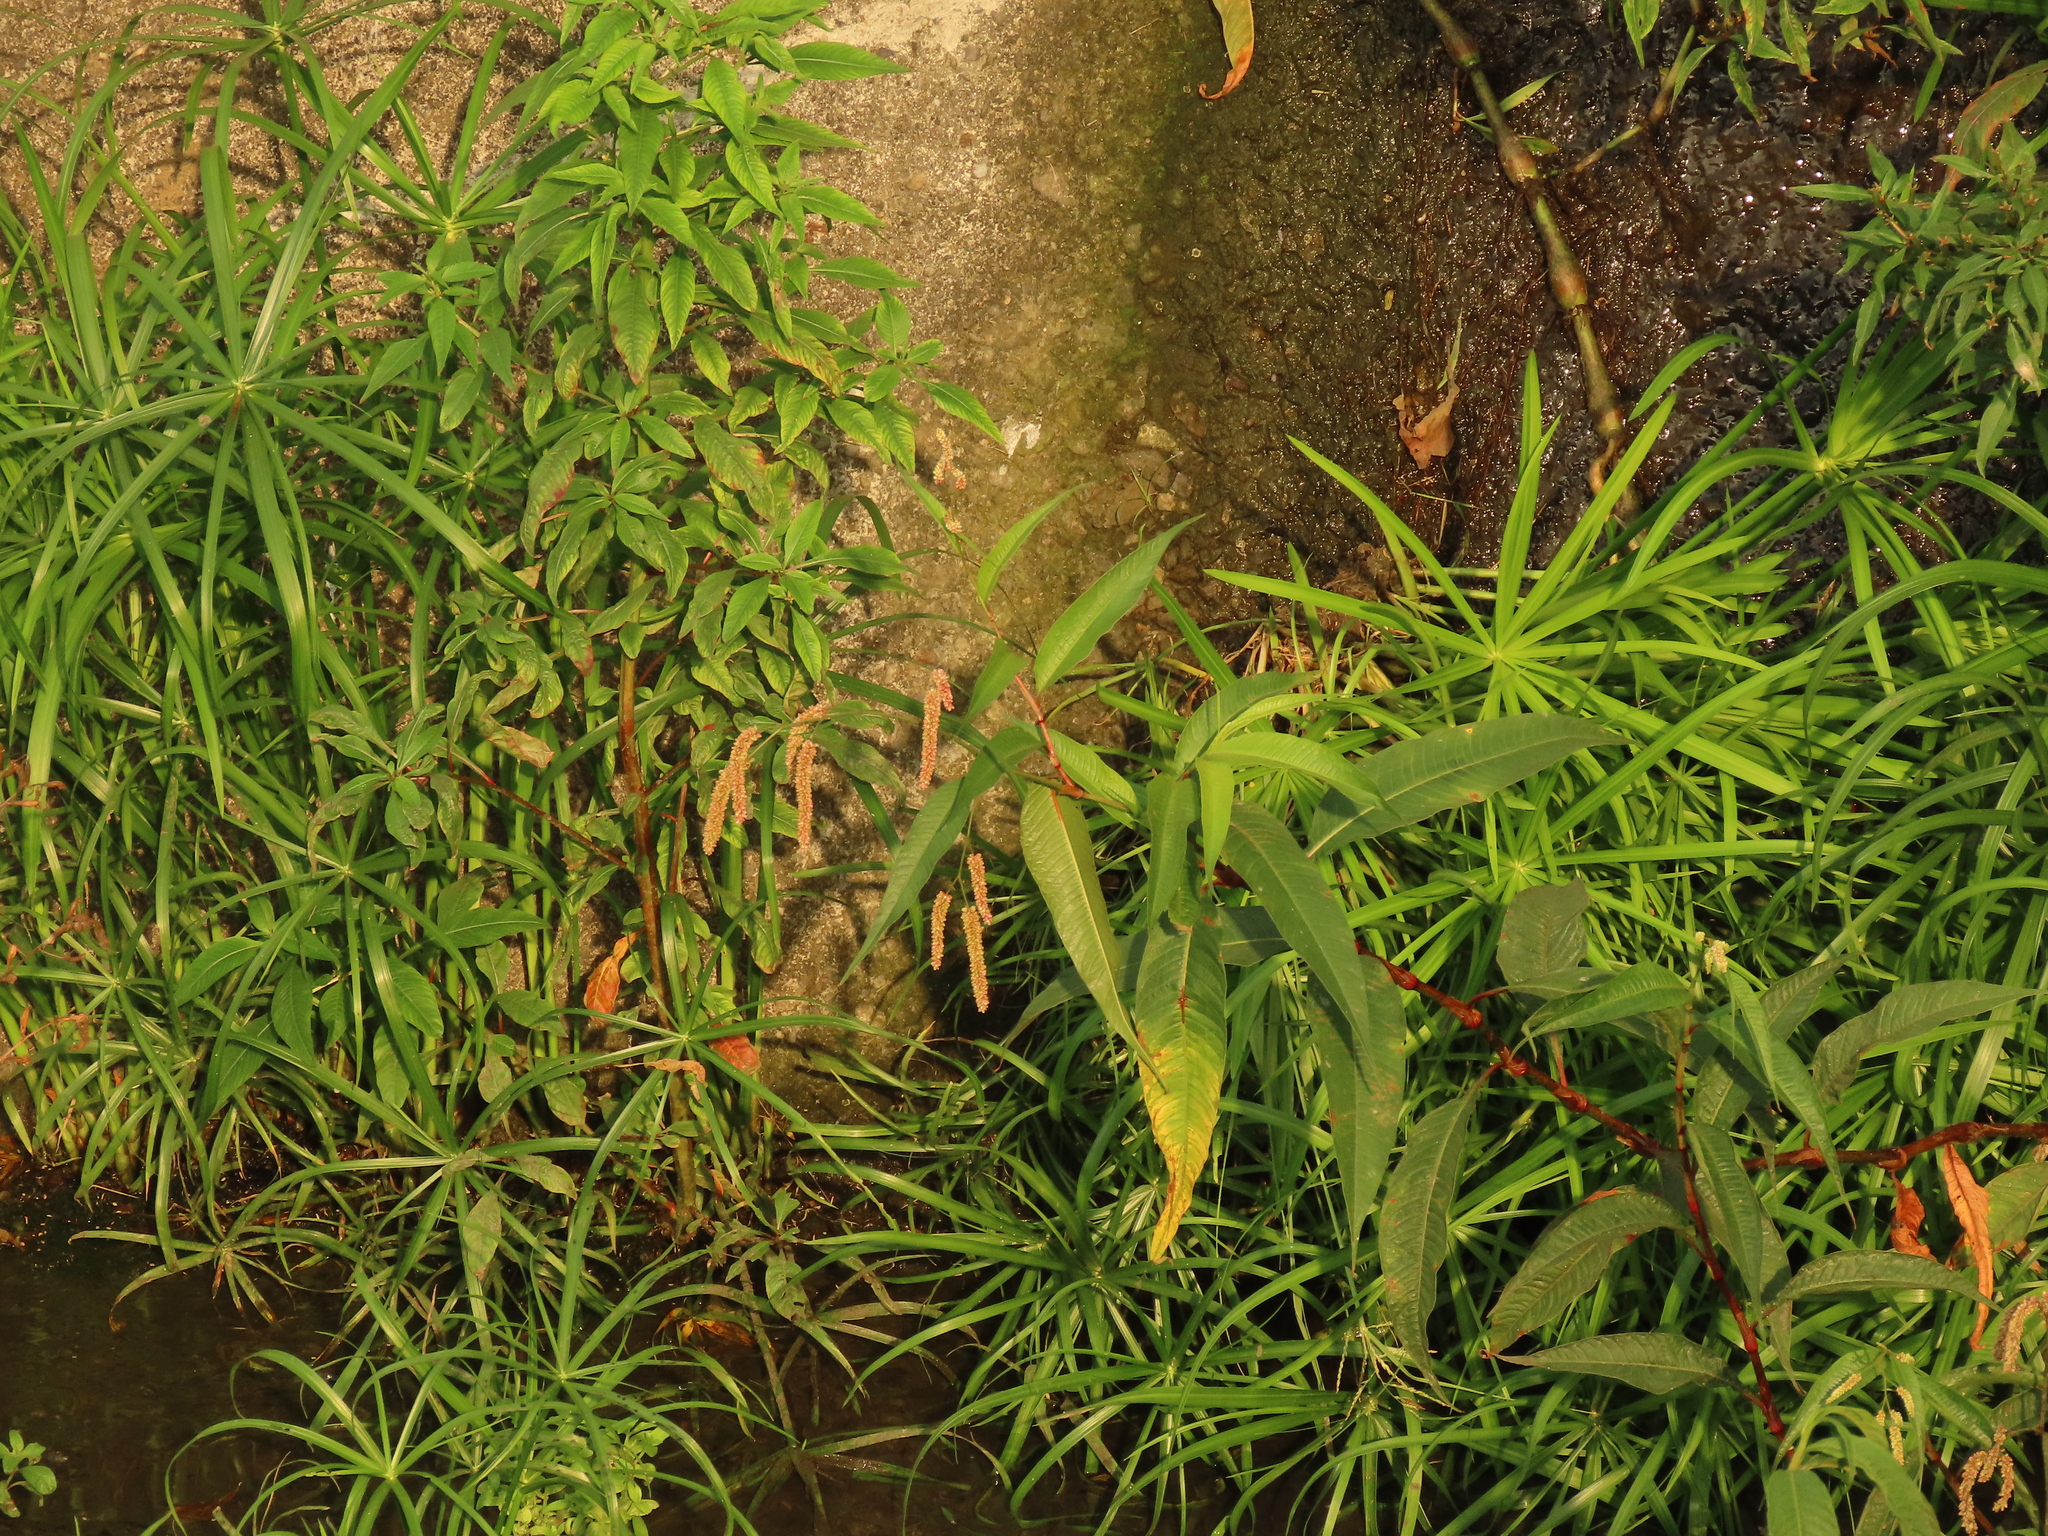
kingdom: Plantae
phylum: Tracheophyta
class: Liliopsida
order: Poales
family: Cyperaceae
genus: Cyperus
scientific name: Cyperus alternifolius
